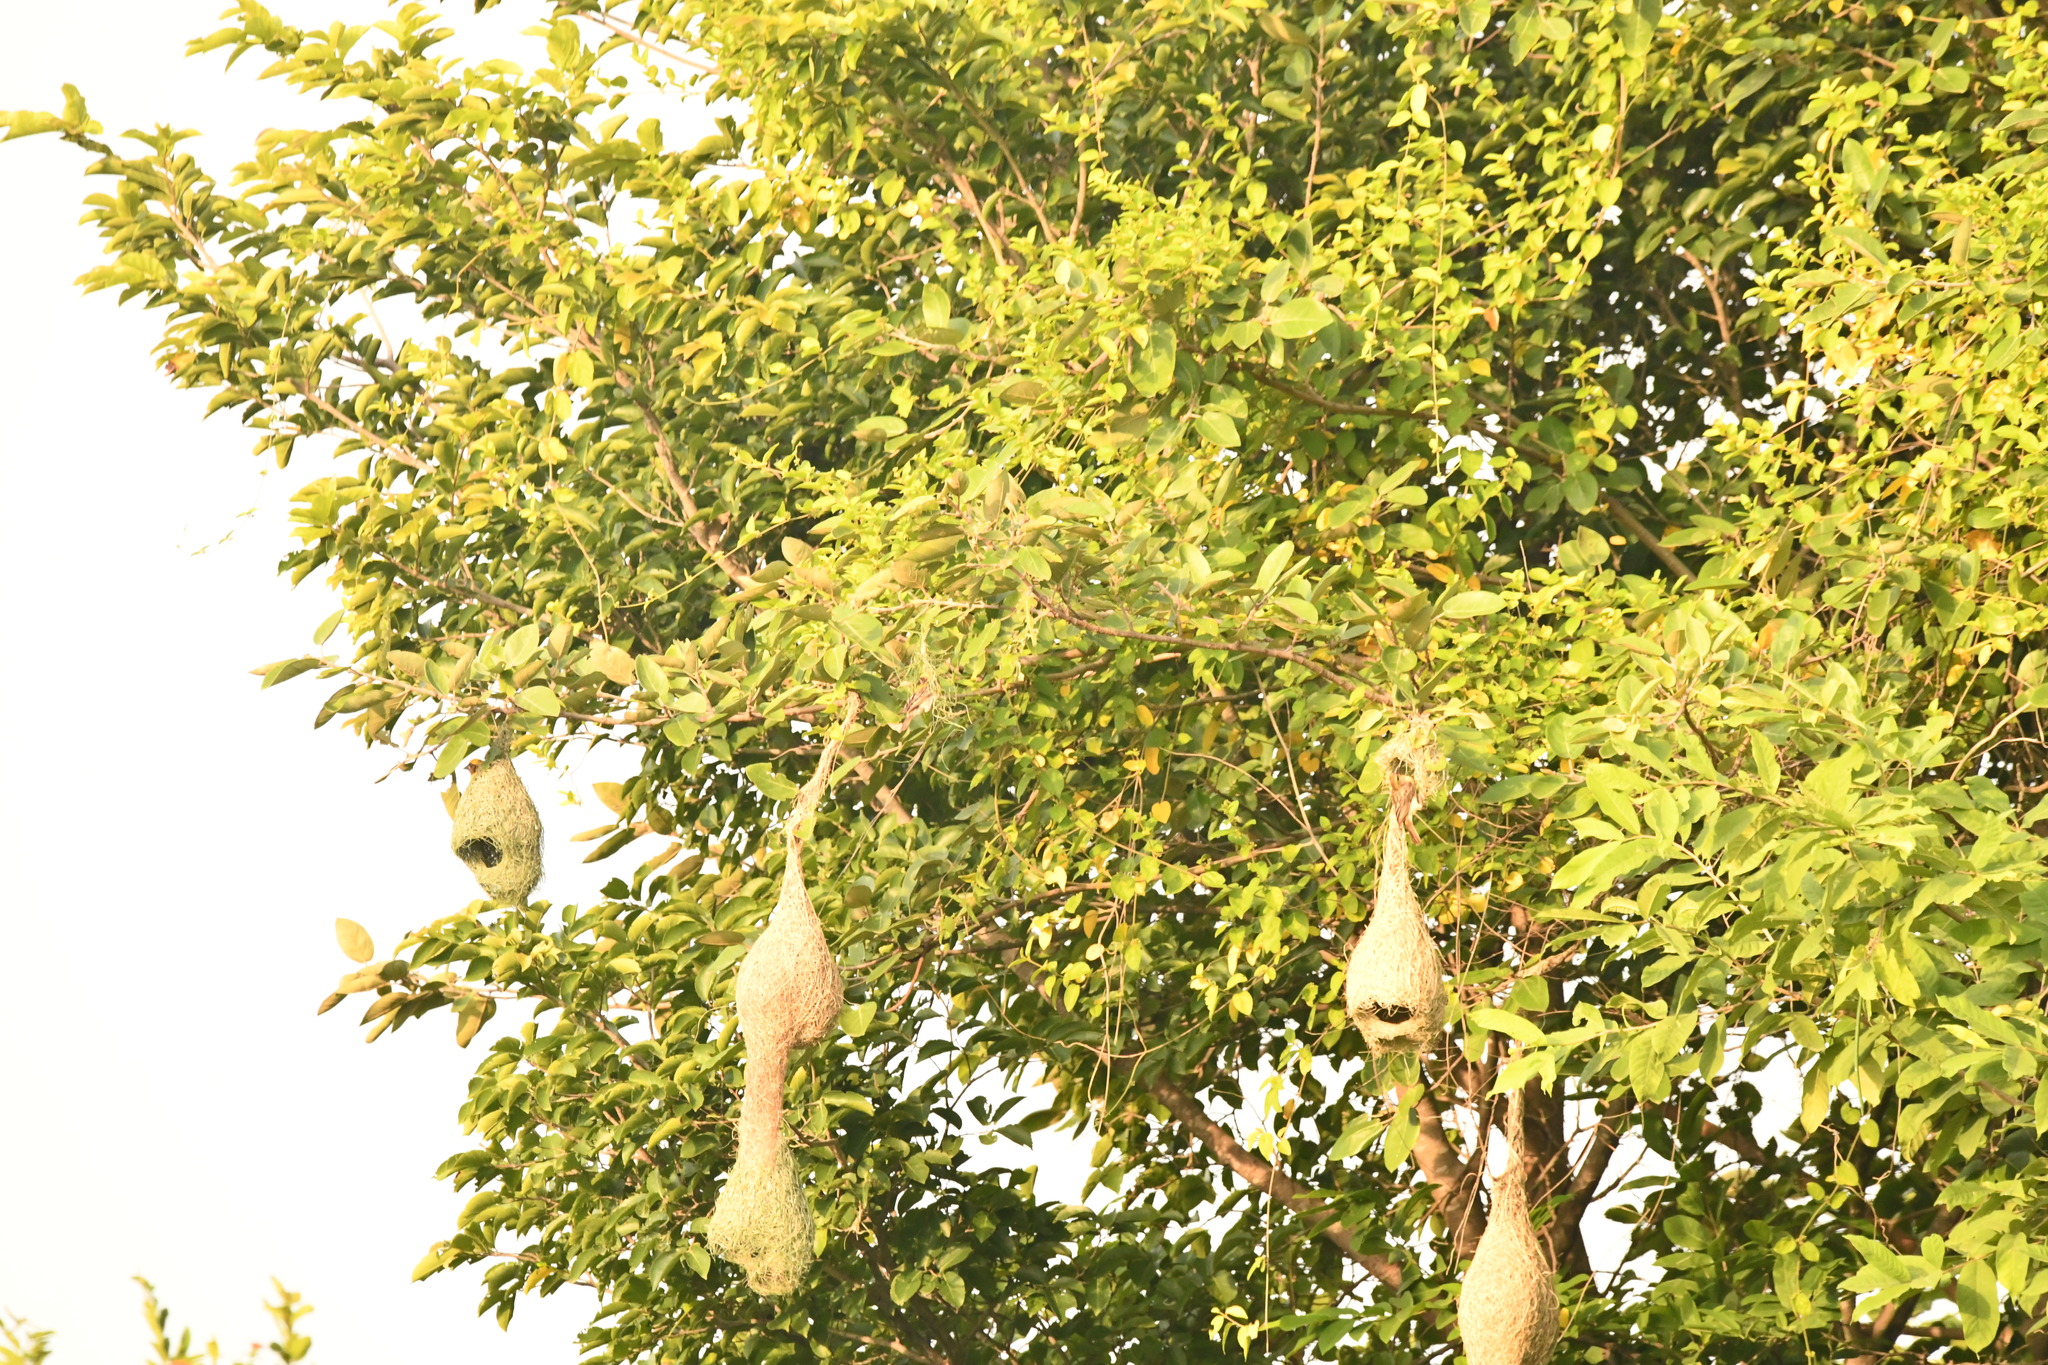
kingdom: Animalia
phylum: Chordata
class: Aves
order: Passeriformes
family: Ploceidae
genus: Ploceus
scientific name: Ploceus philippinus
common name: Baya weaver
